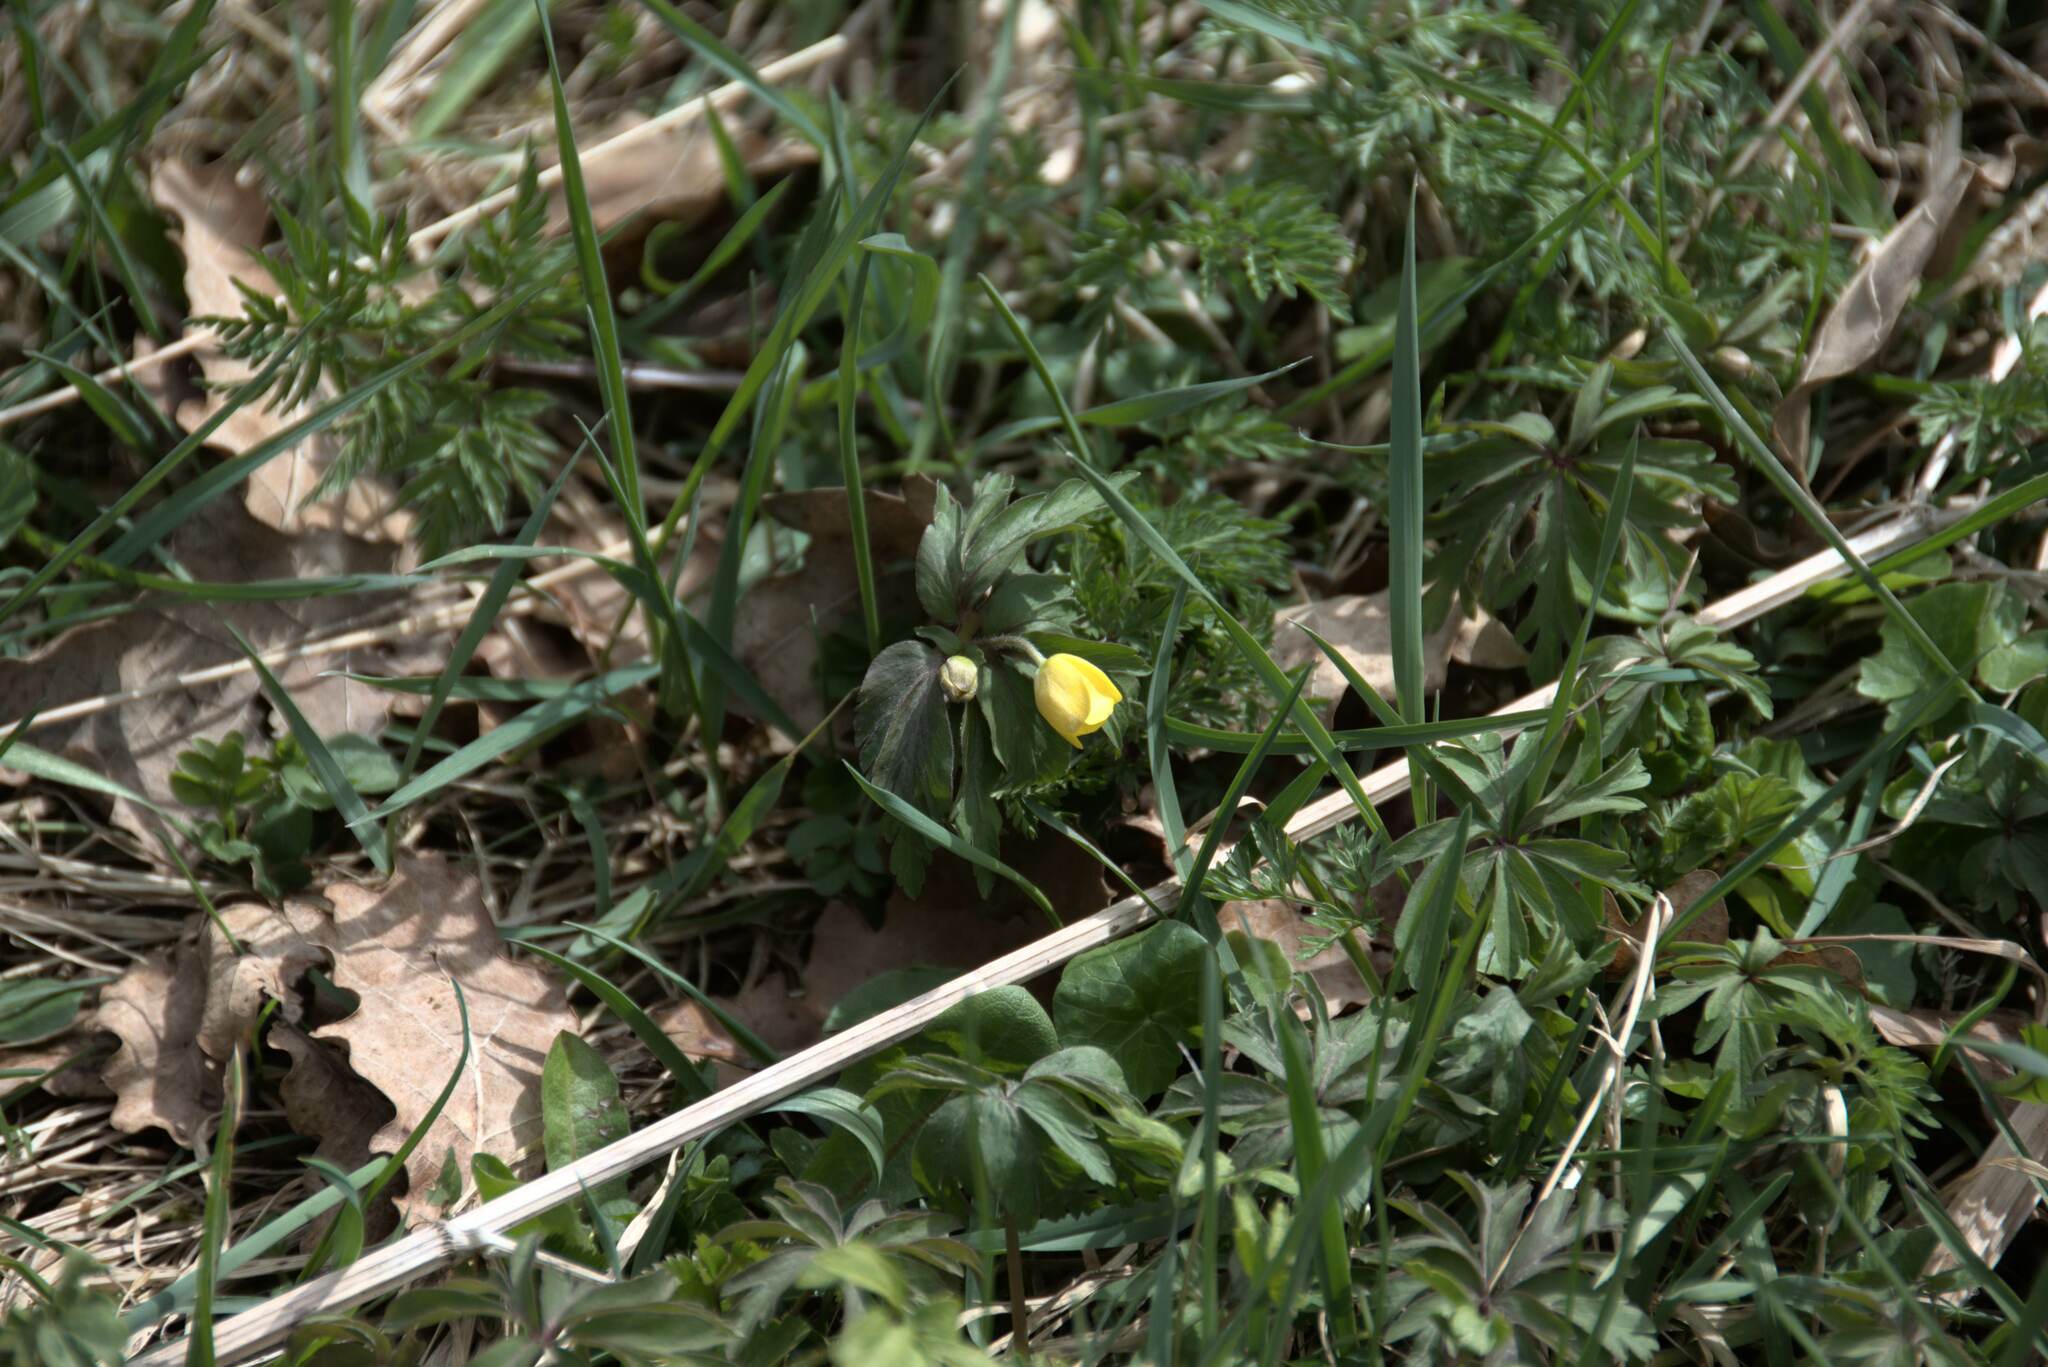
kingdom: Plantae
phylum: Tracheophyta
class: Magnoliopsida
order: Ranunculales
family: Ranunculaceae
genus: Anemone
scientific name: Anemone ranunculoides
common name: Yellow anemone
